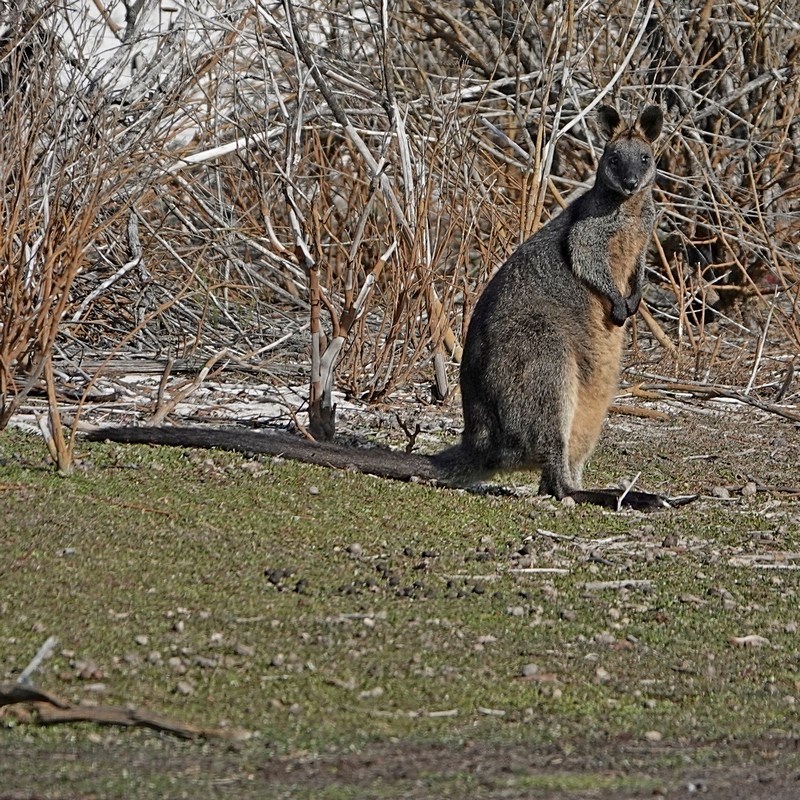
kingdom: Animalia
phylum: Chordata
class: Mammalia
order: Diprotodontia
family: Macropodidae
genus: Wallabia
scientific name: Wallabia bicolor
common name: Swamp wallaby
